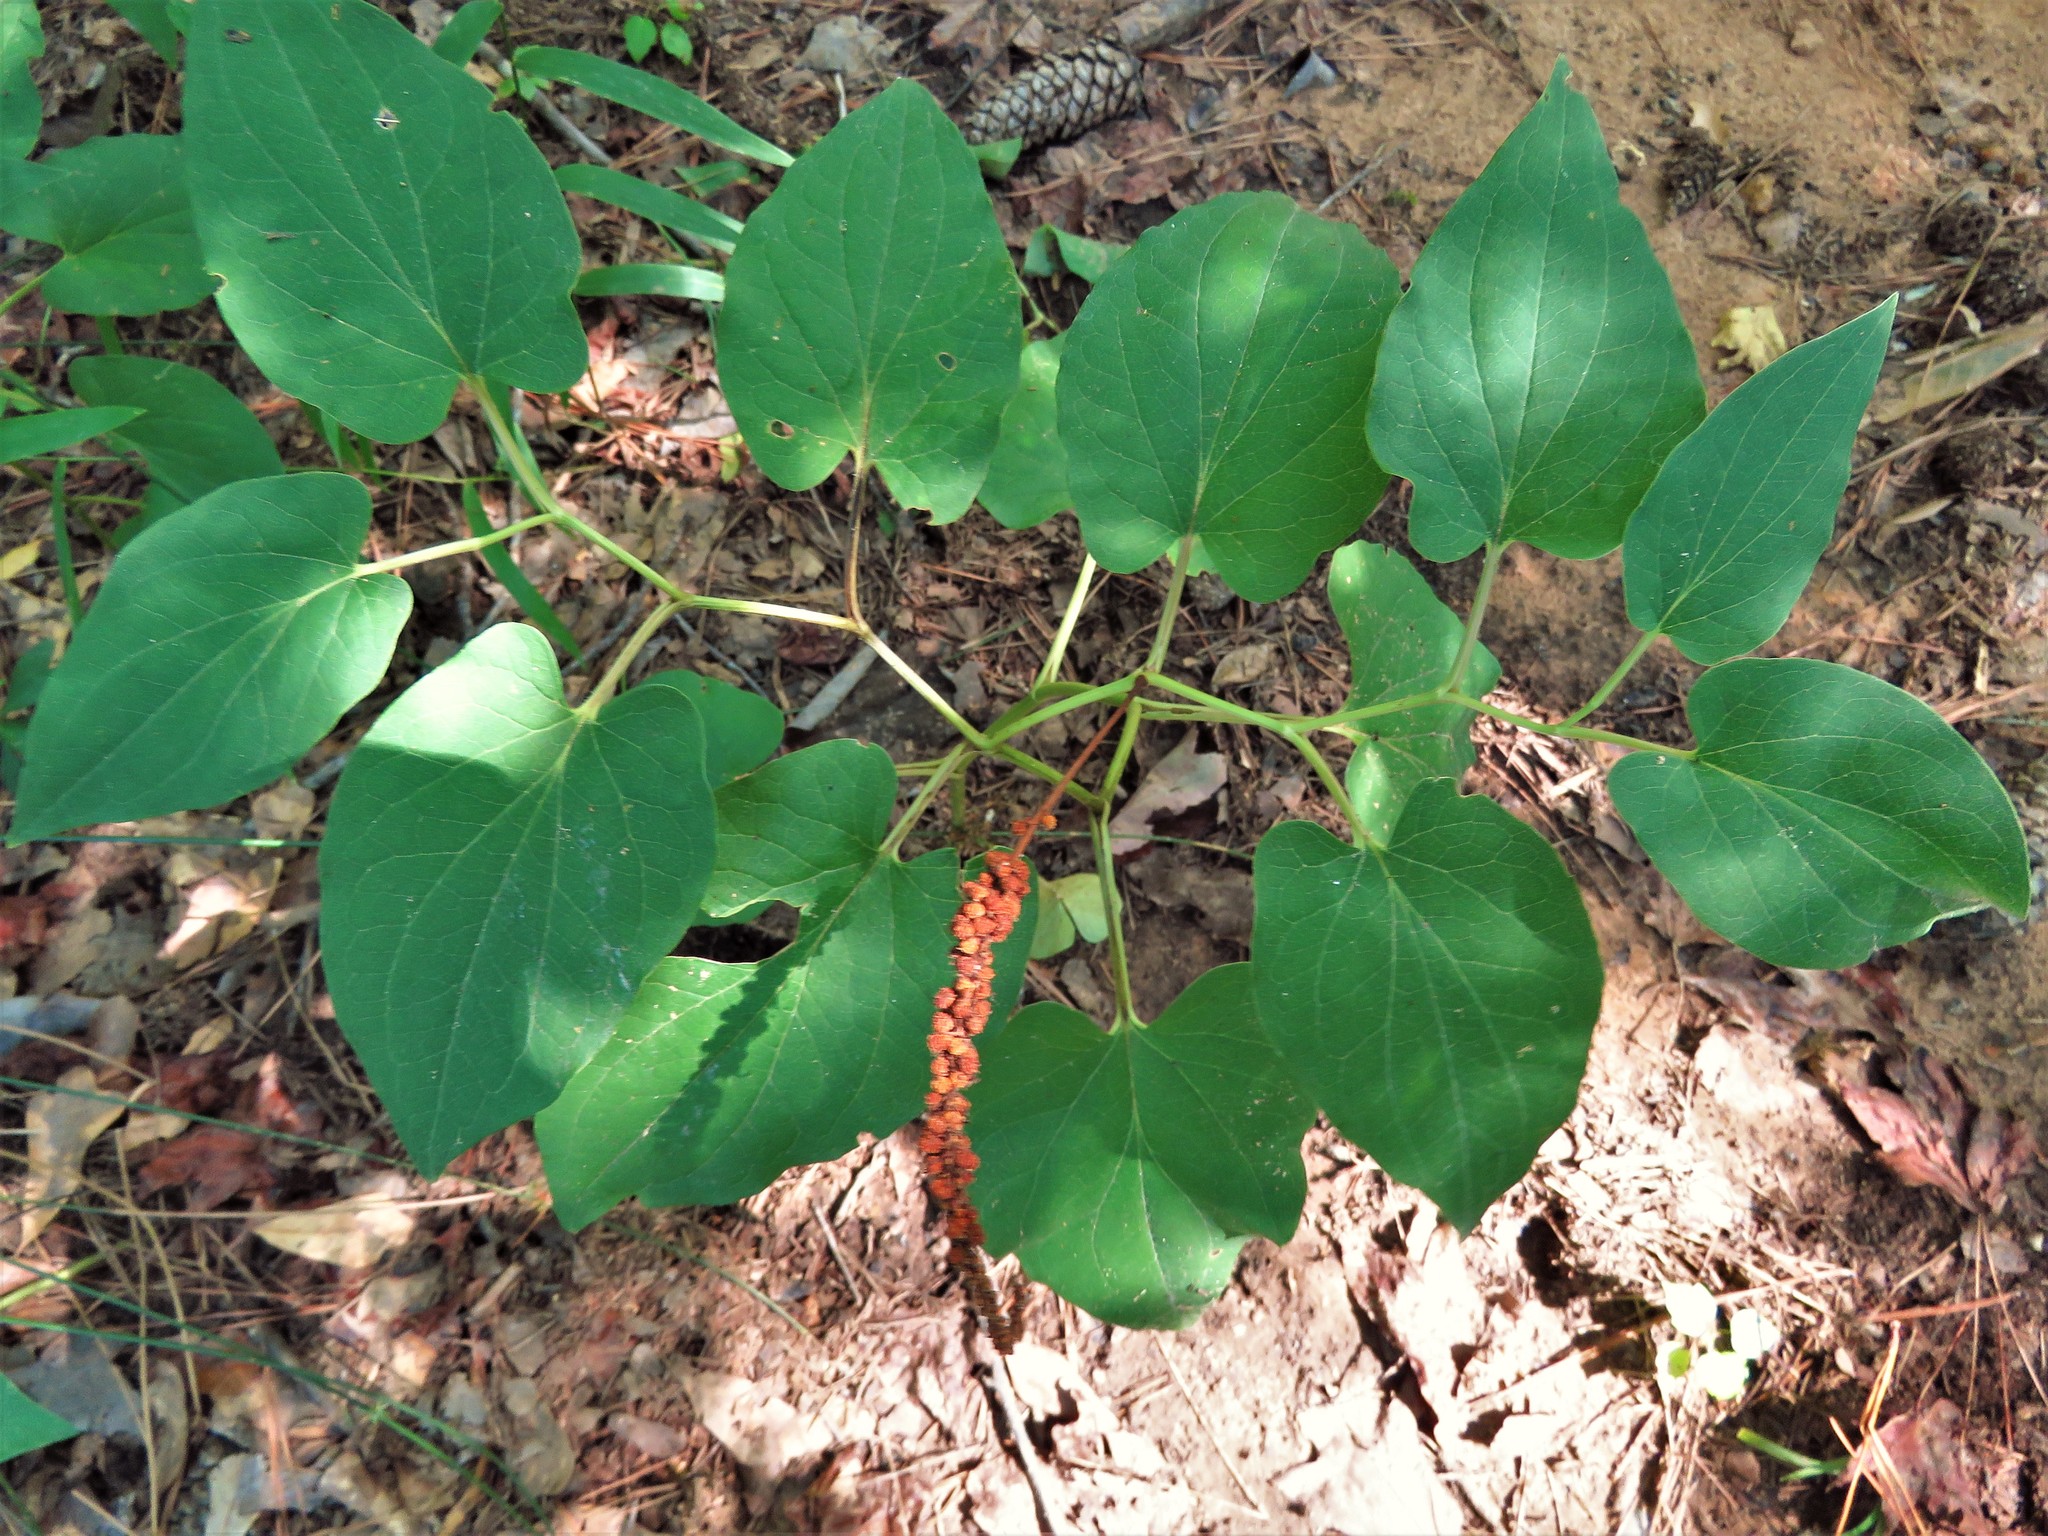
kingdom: Plantae
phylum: Tracheophyta
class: Magnoliopsida
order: Piperales
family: Saururaceae
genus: Saururus
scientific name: Saururus cernuus
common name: Lizard's-tail
